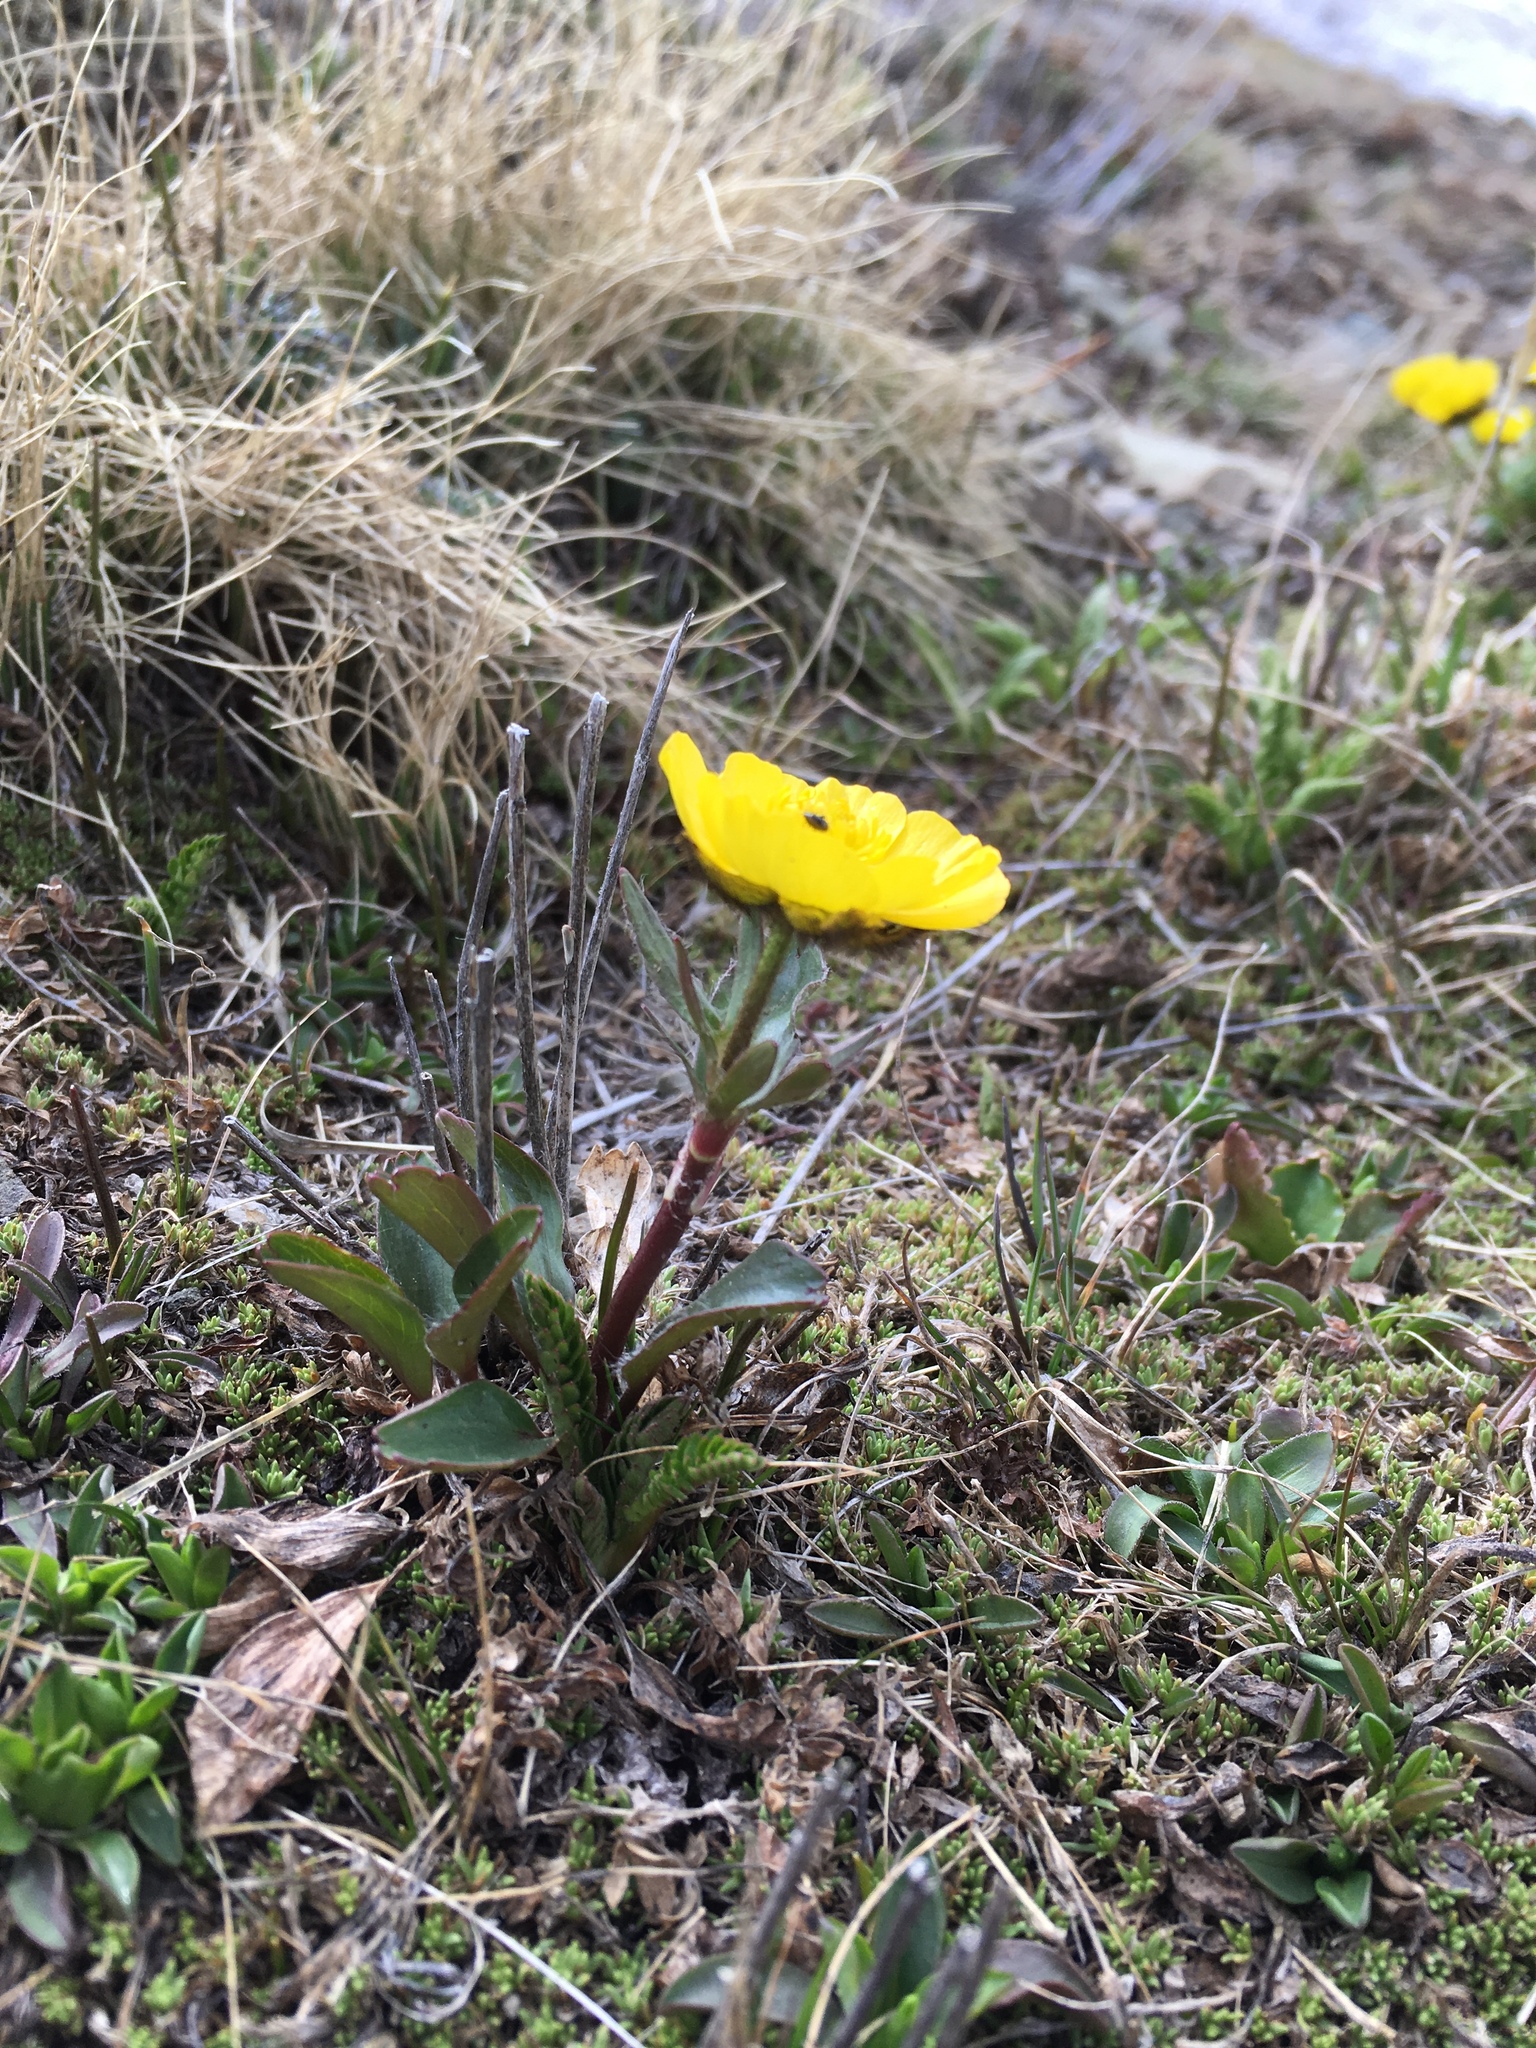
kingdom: Plantae
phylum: Tracheophyta
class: Magnoliopsida
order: Ranunculales
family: Ranunculaceae
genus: Ranunculus
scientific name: Ranunculus macauleyi
